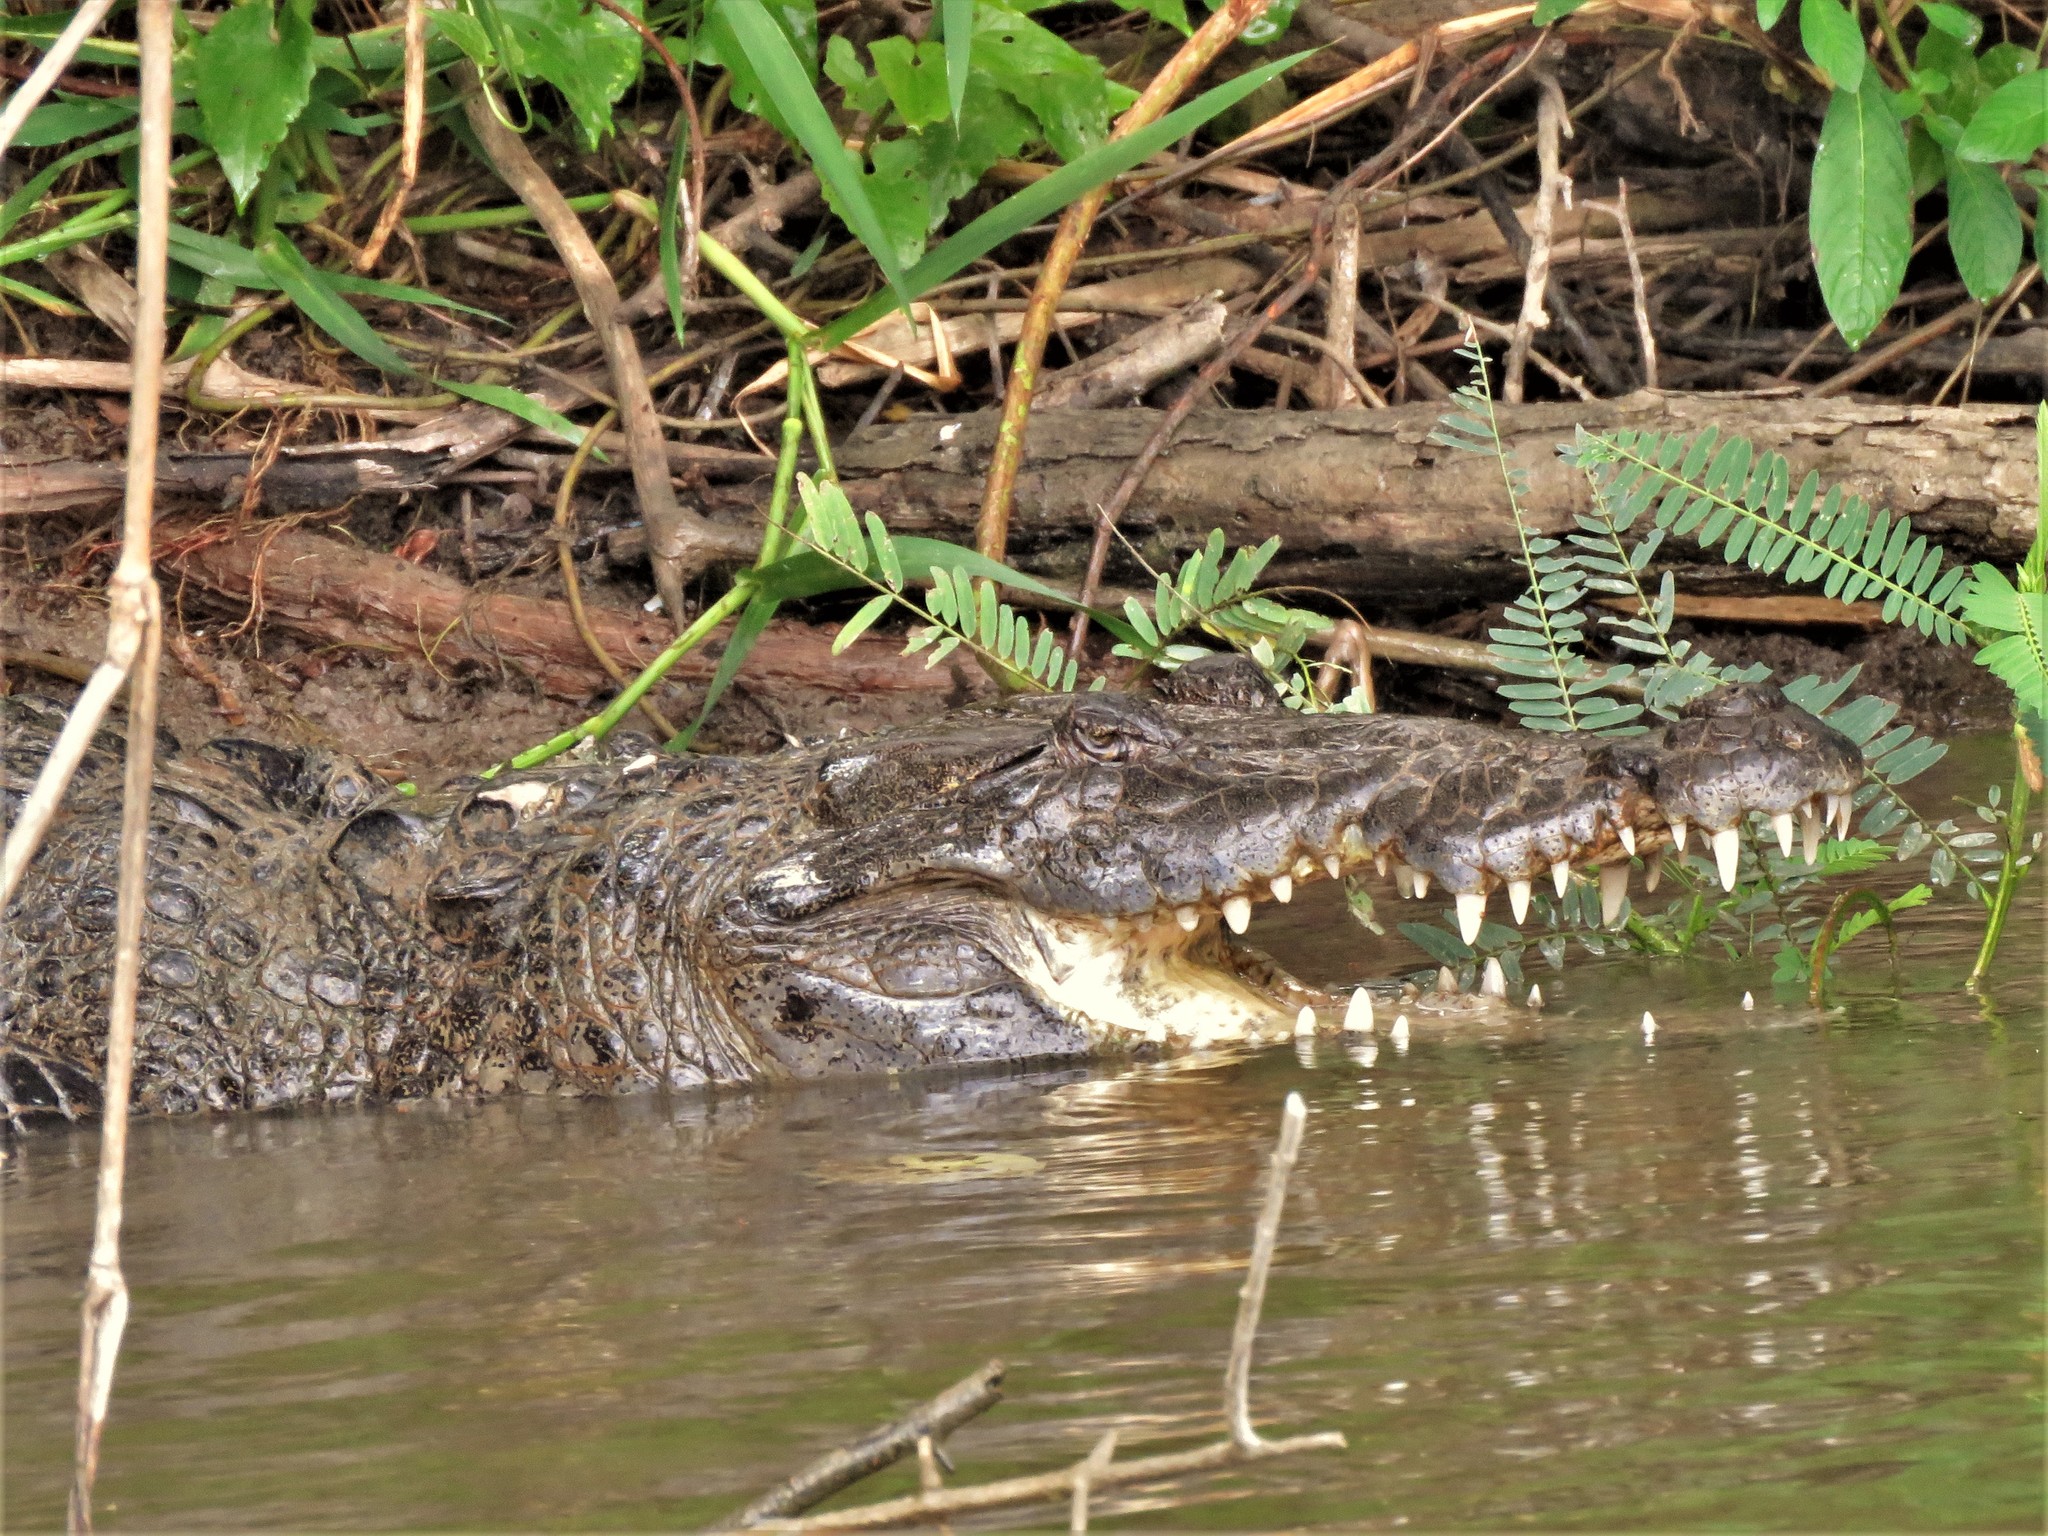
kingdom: Animalia
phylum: Chordata
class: Crocodylia
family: Crocodylidae
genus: Crocodylus
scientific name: Crocodylus moreletii
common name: Morelet's crocodile
